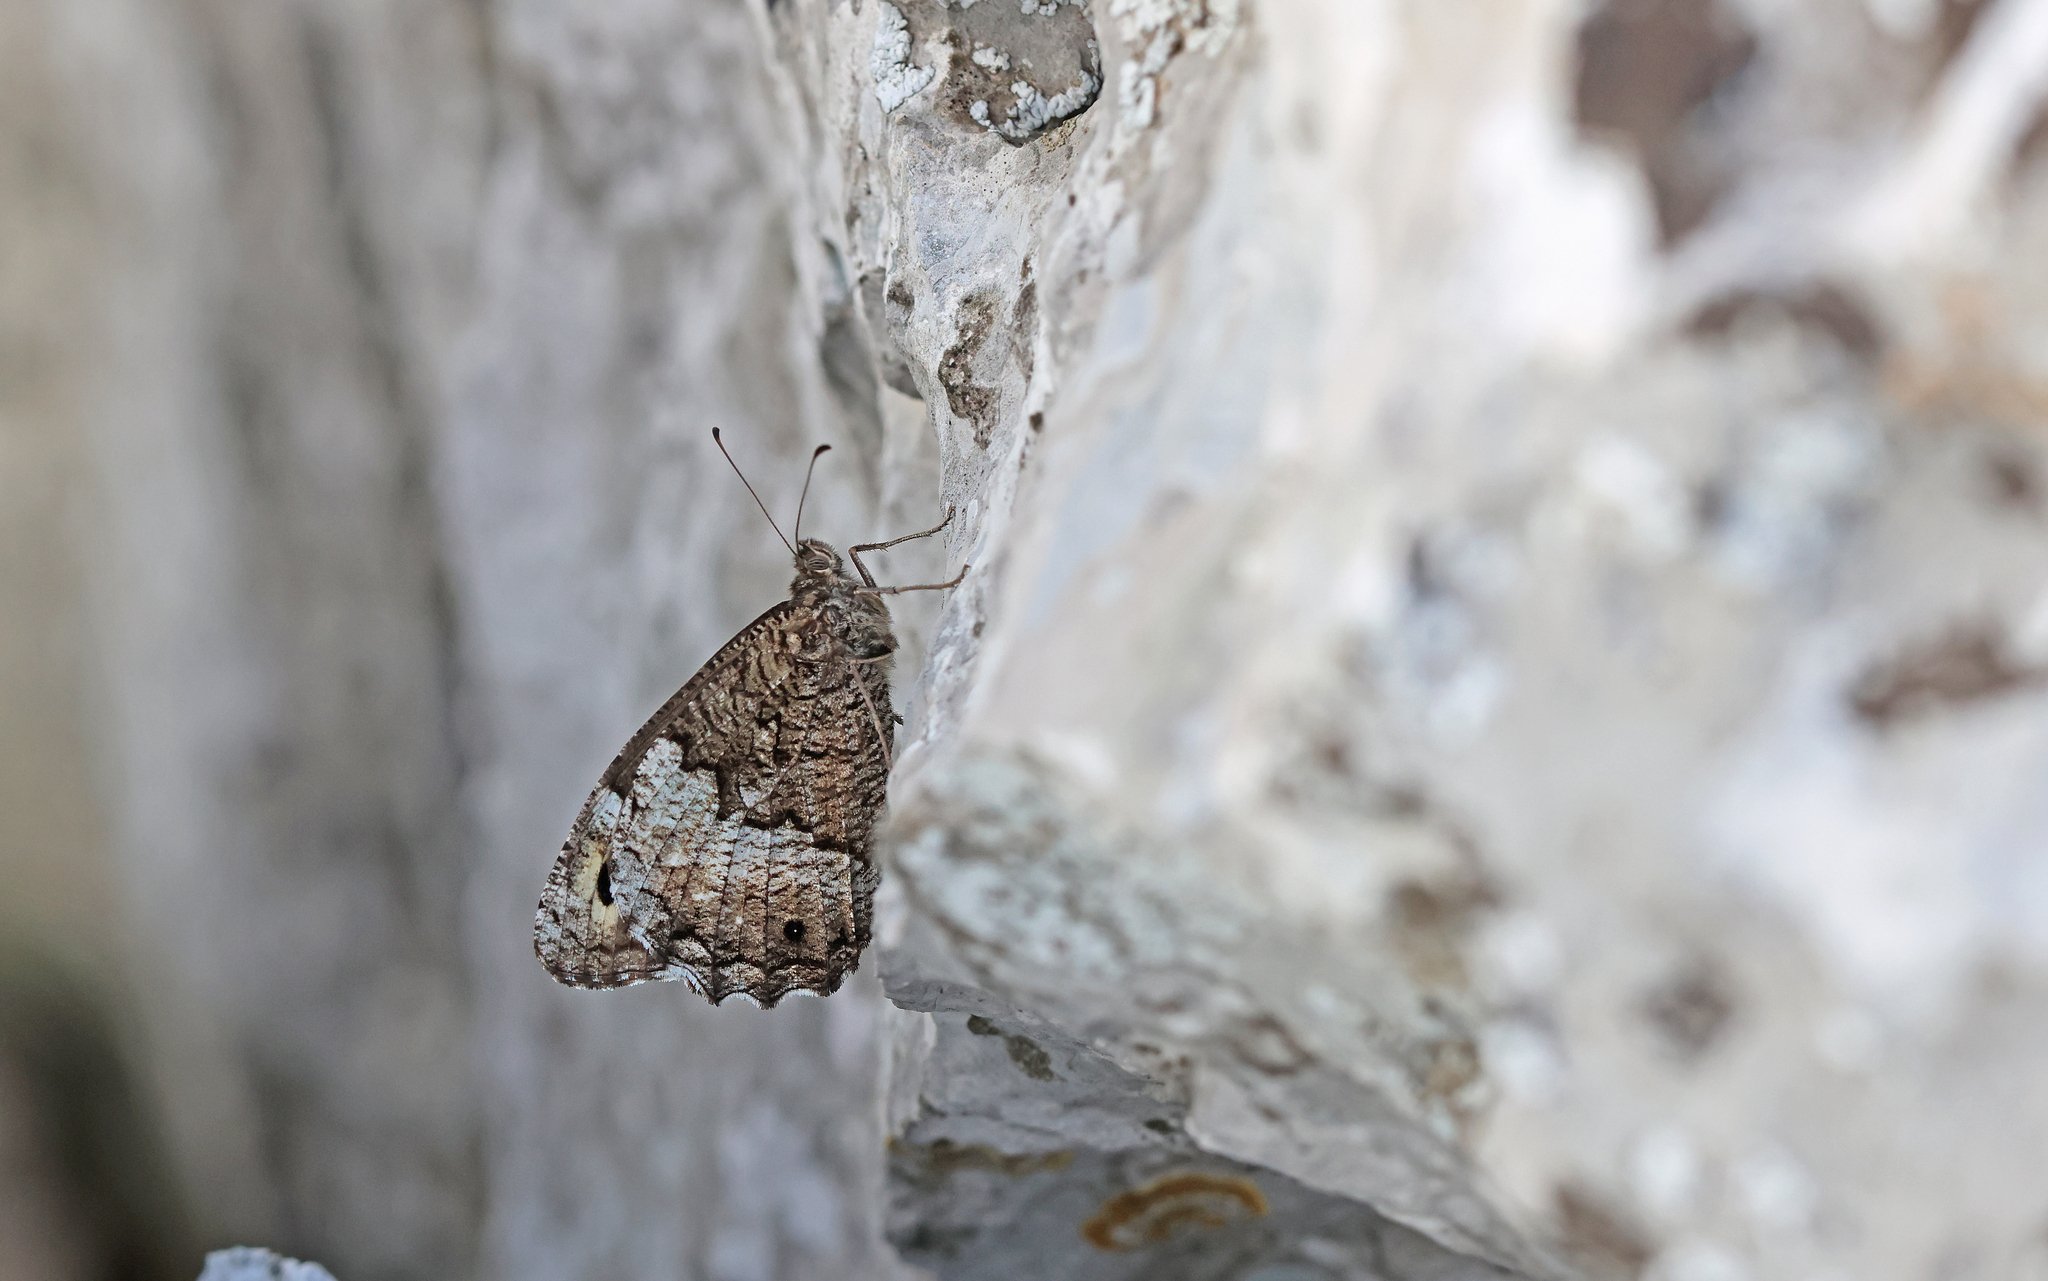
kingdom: Animalia
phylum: Arthropoda
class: Insecta
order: Lepidoptera
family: Nymphalidae
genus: Hipparchia
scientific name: Hipparchia fagi
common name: Woodland grayling
